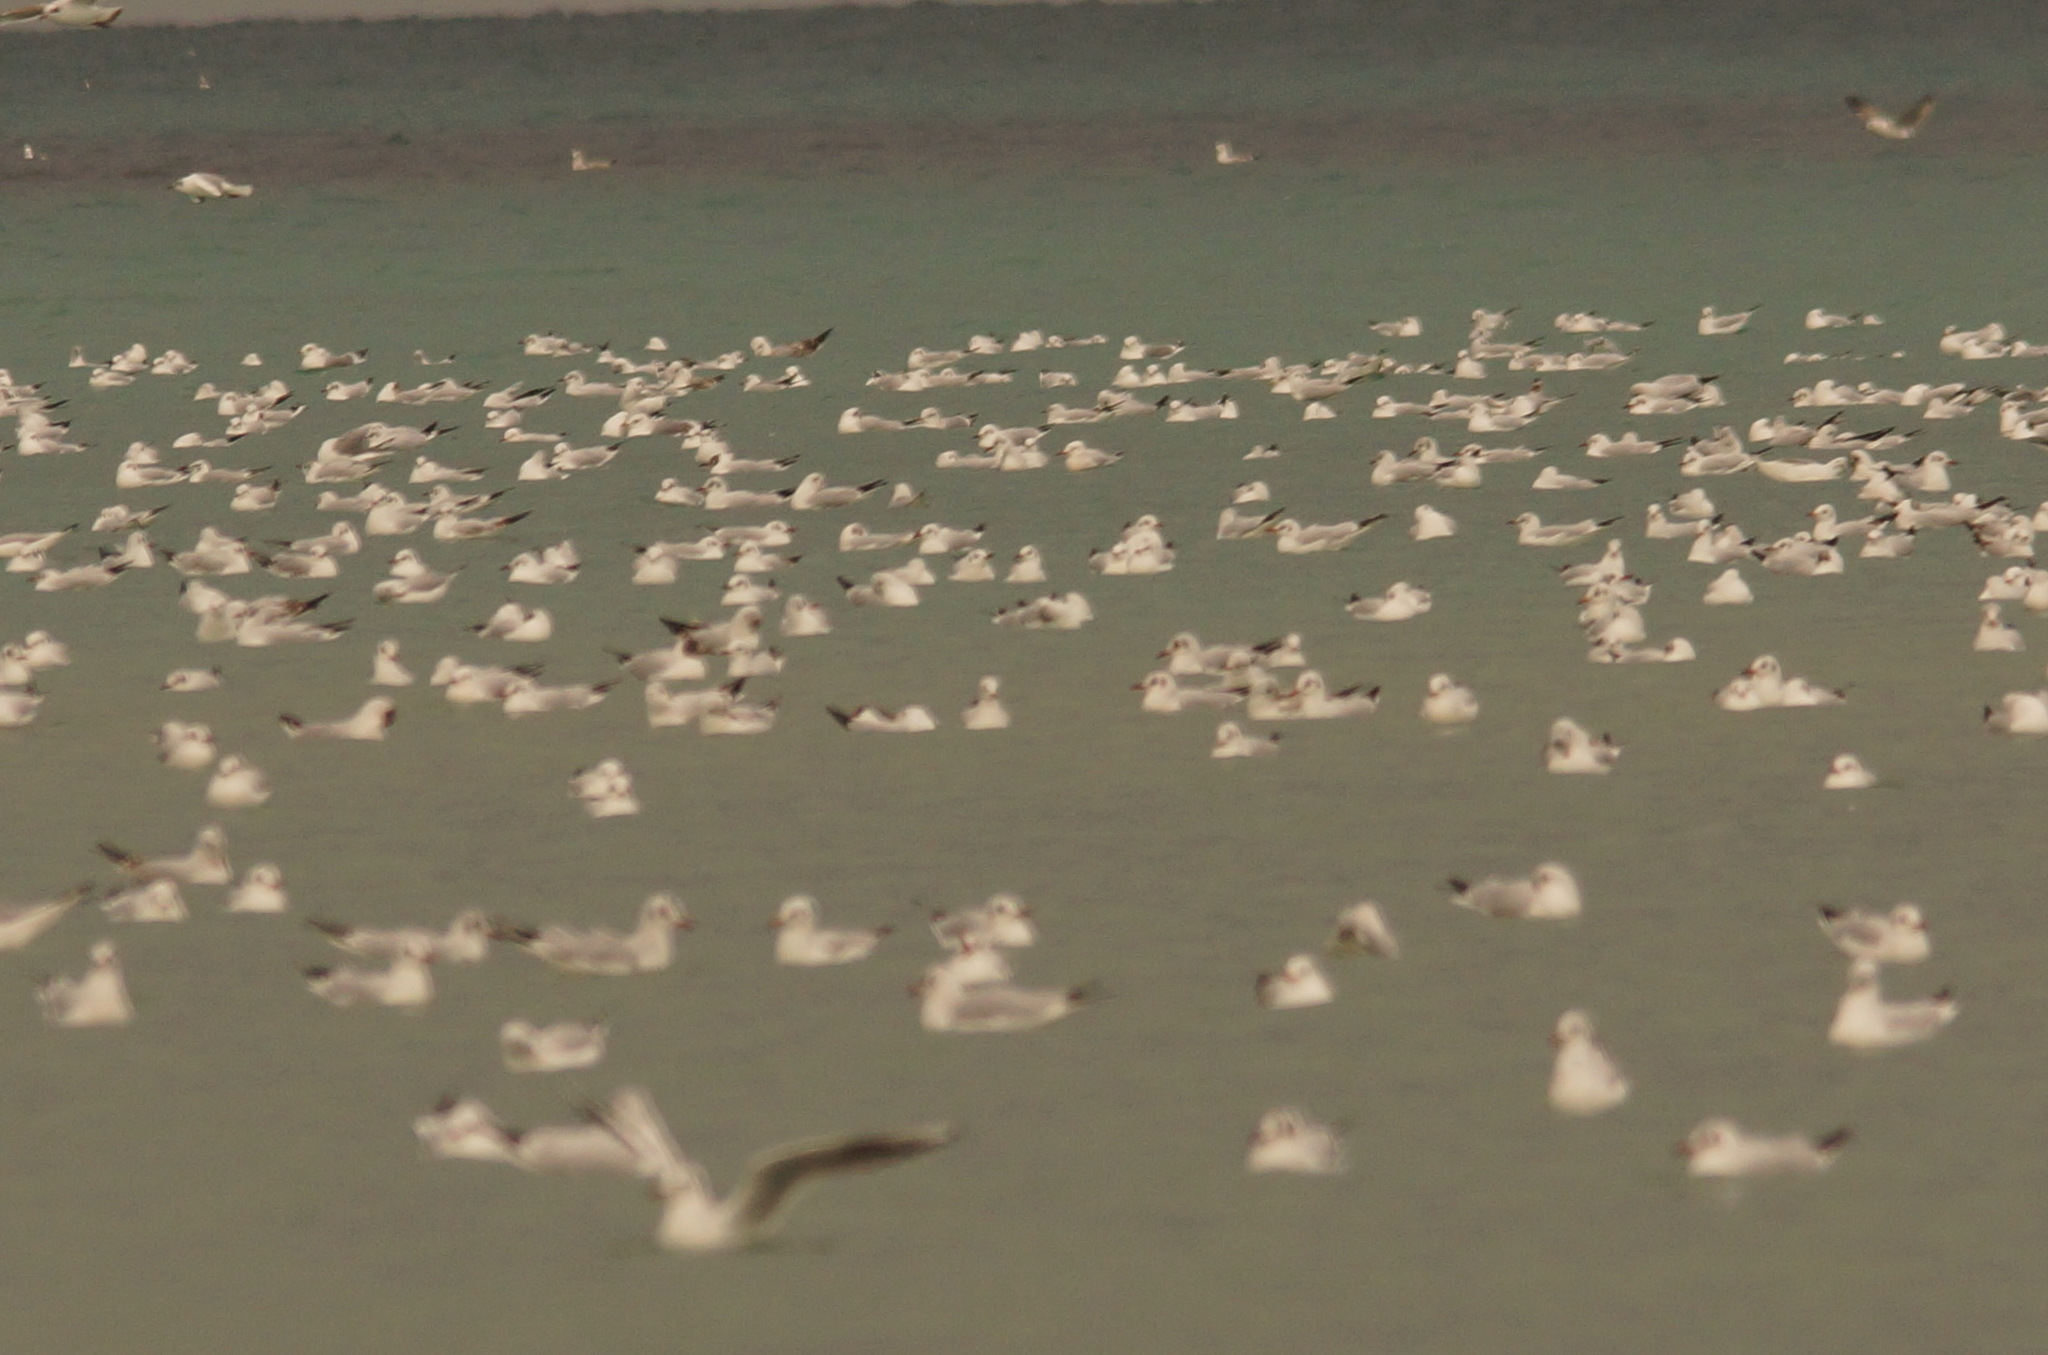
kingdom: Animalia
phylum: Chordata
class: Aves
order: Charadriiformes
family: Laridae
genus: Chroicocephalus
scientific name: Chroicocephalus ridibundus
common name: Black-headed gull
